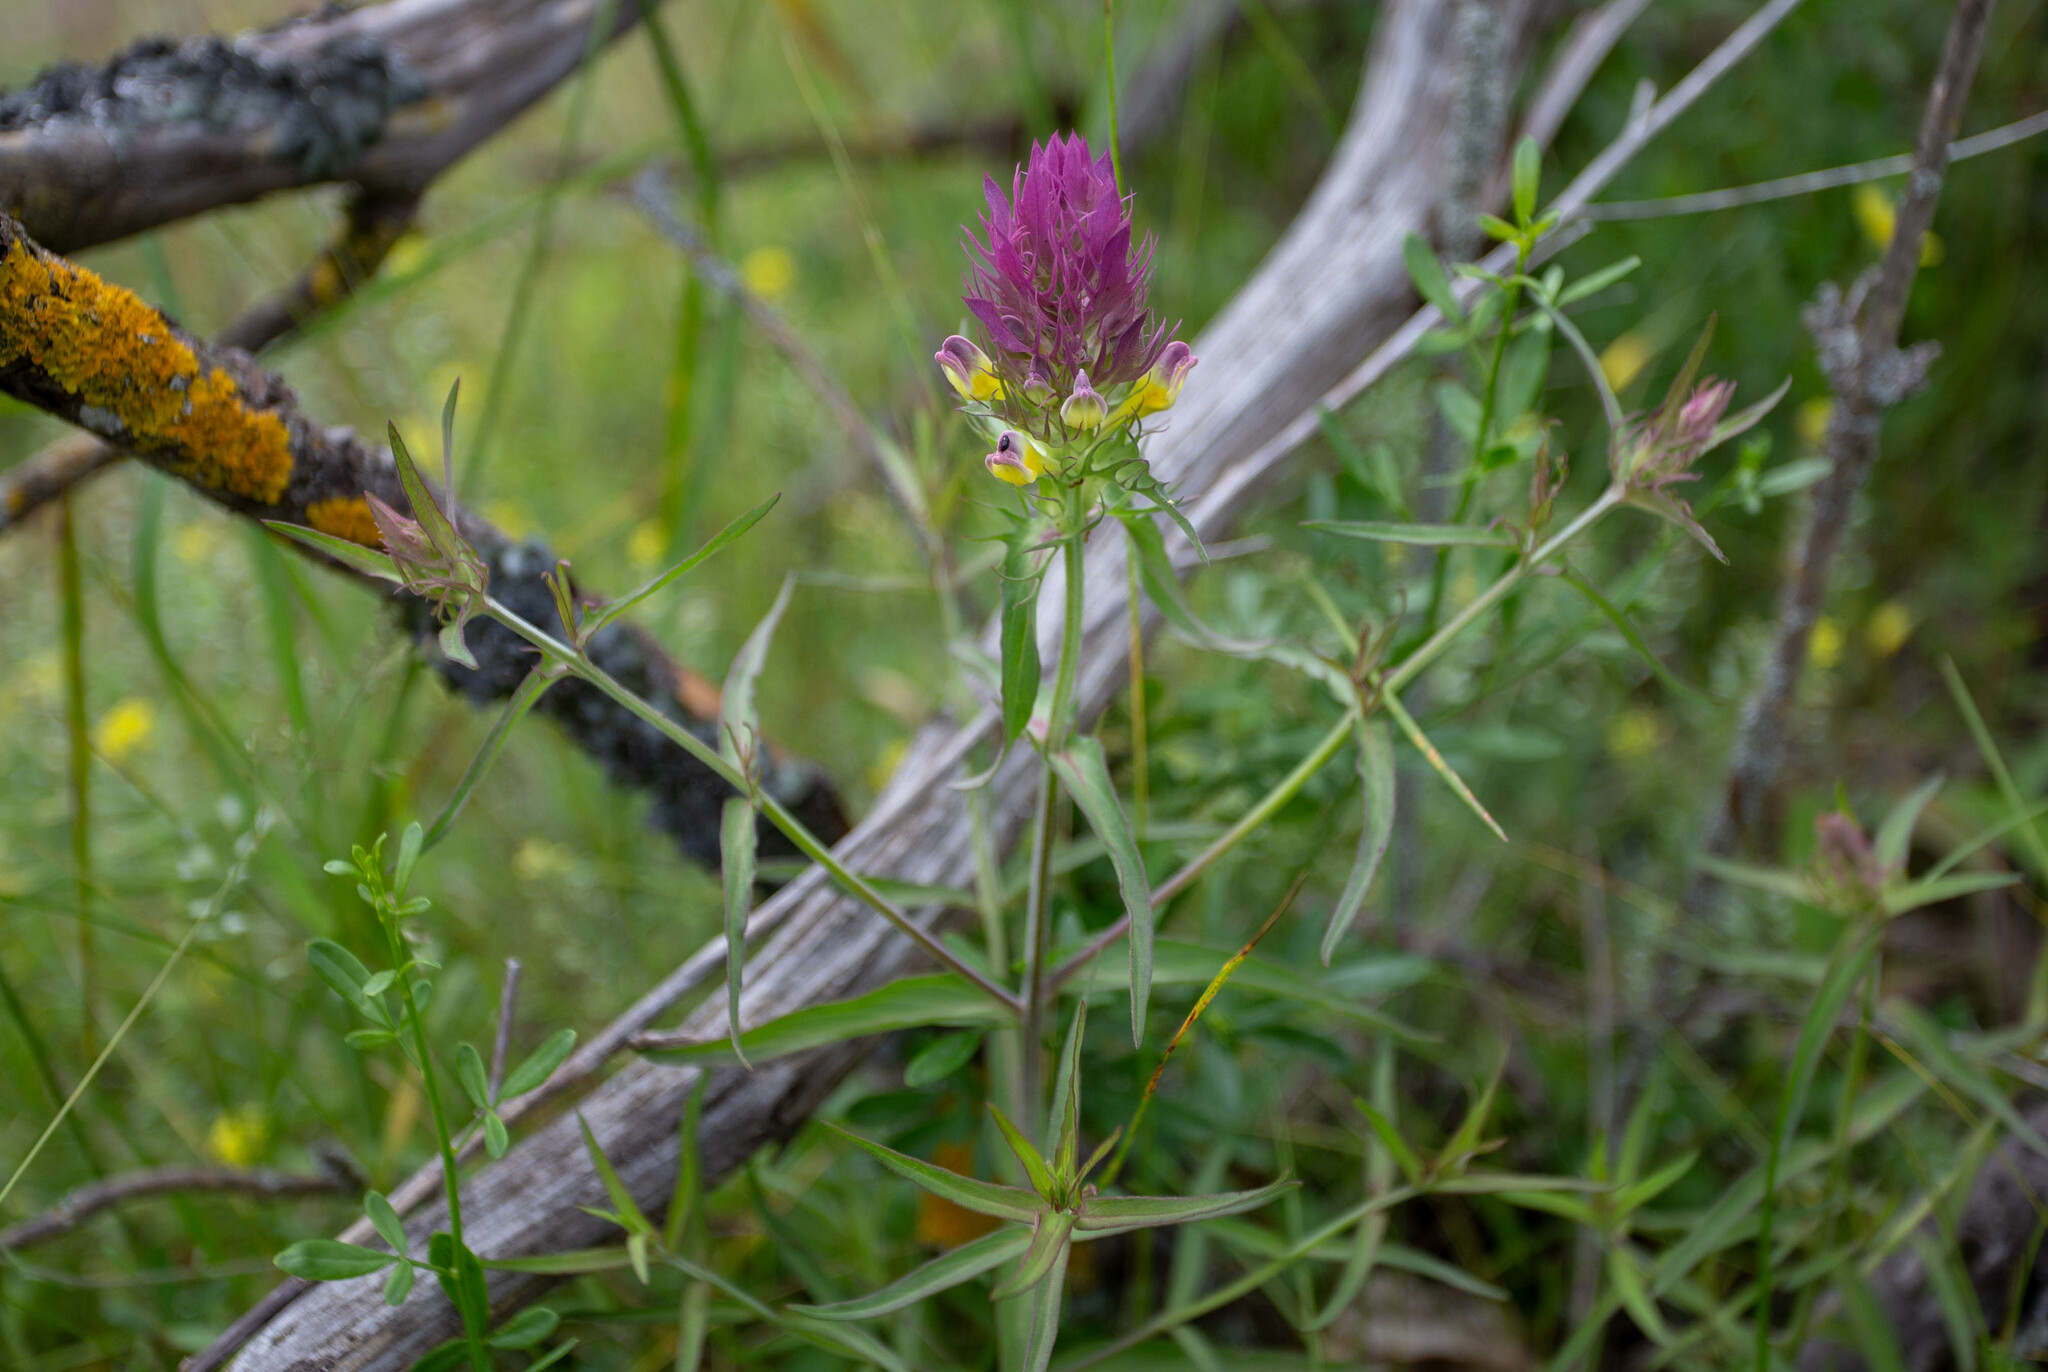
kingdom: Plantae
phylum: Tracheophyta
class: Magnoliopsida
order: Lamiales
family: Orobanchaceae
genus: Melampyrum
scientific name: Melampyrum arvense
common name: Field cow-wheat
